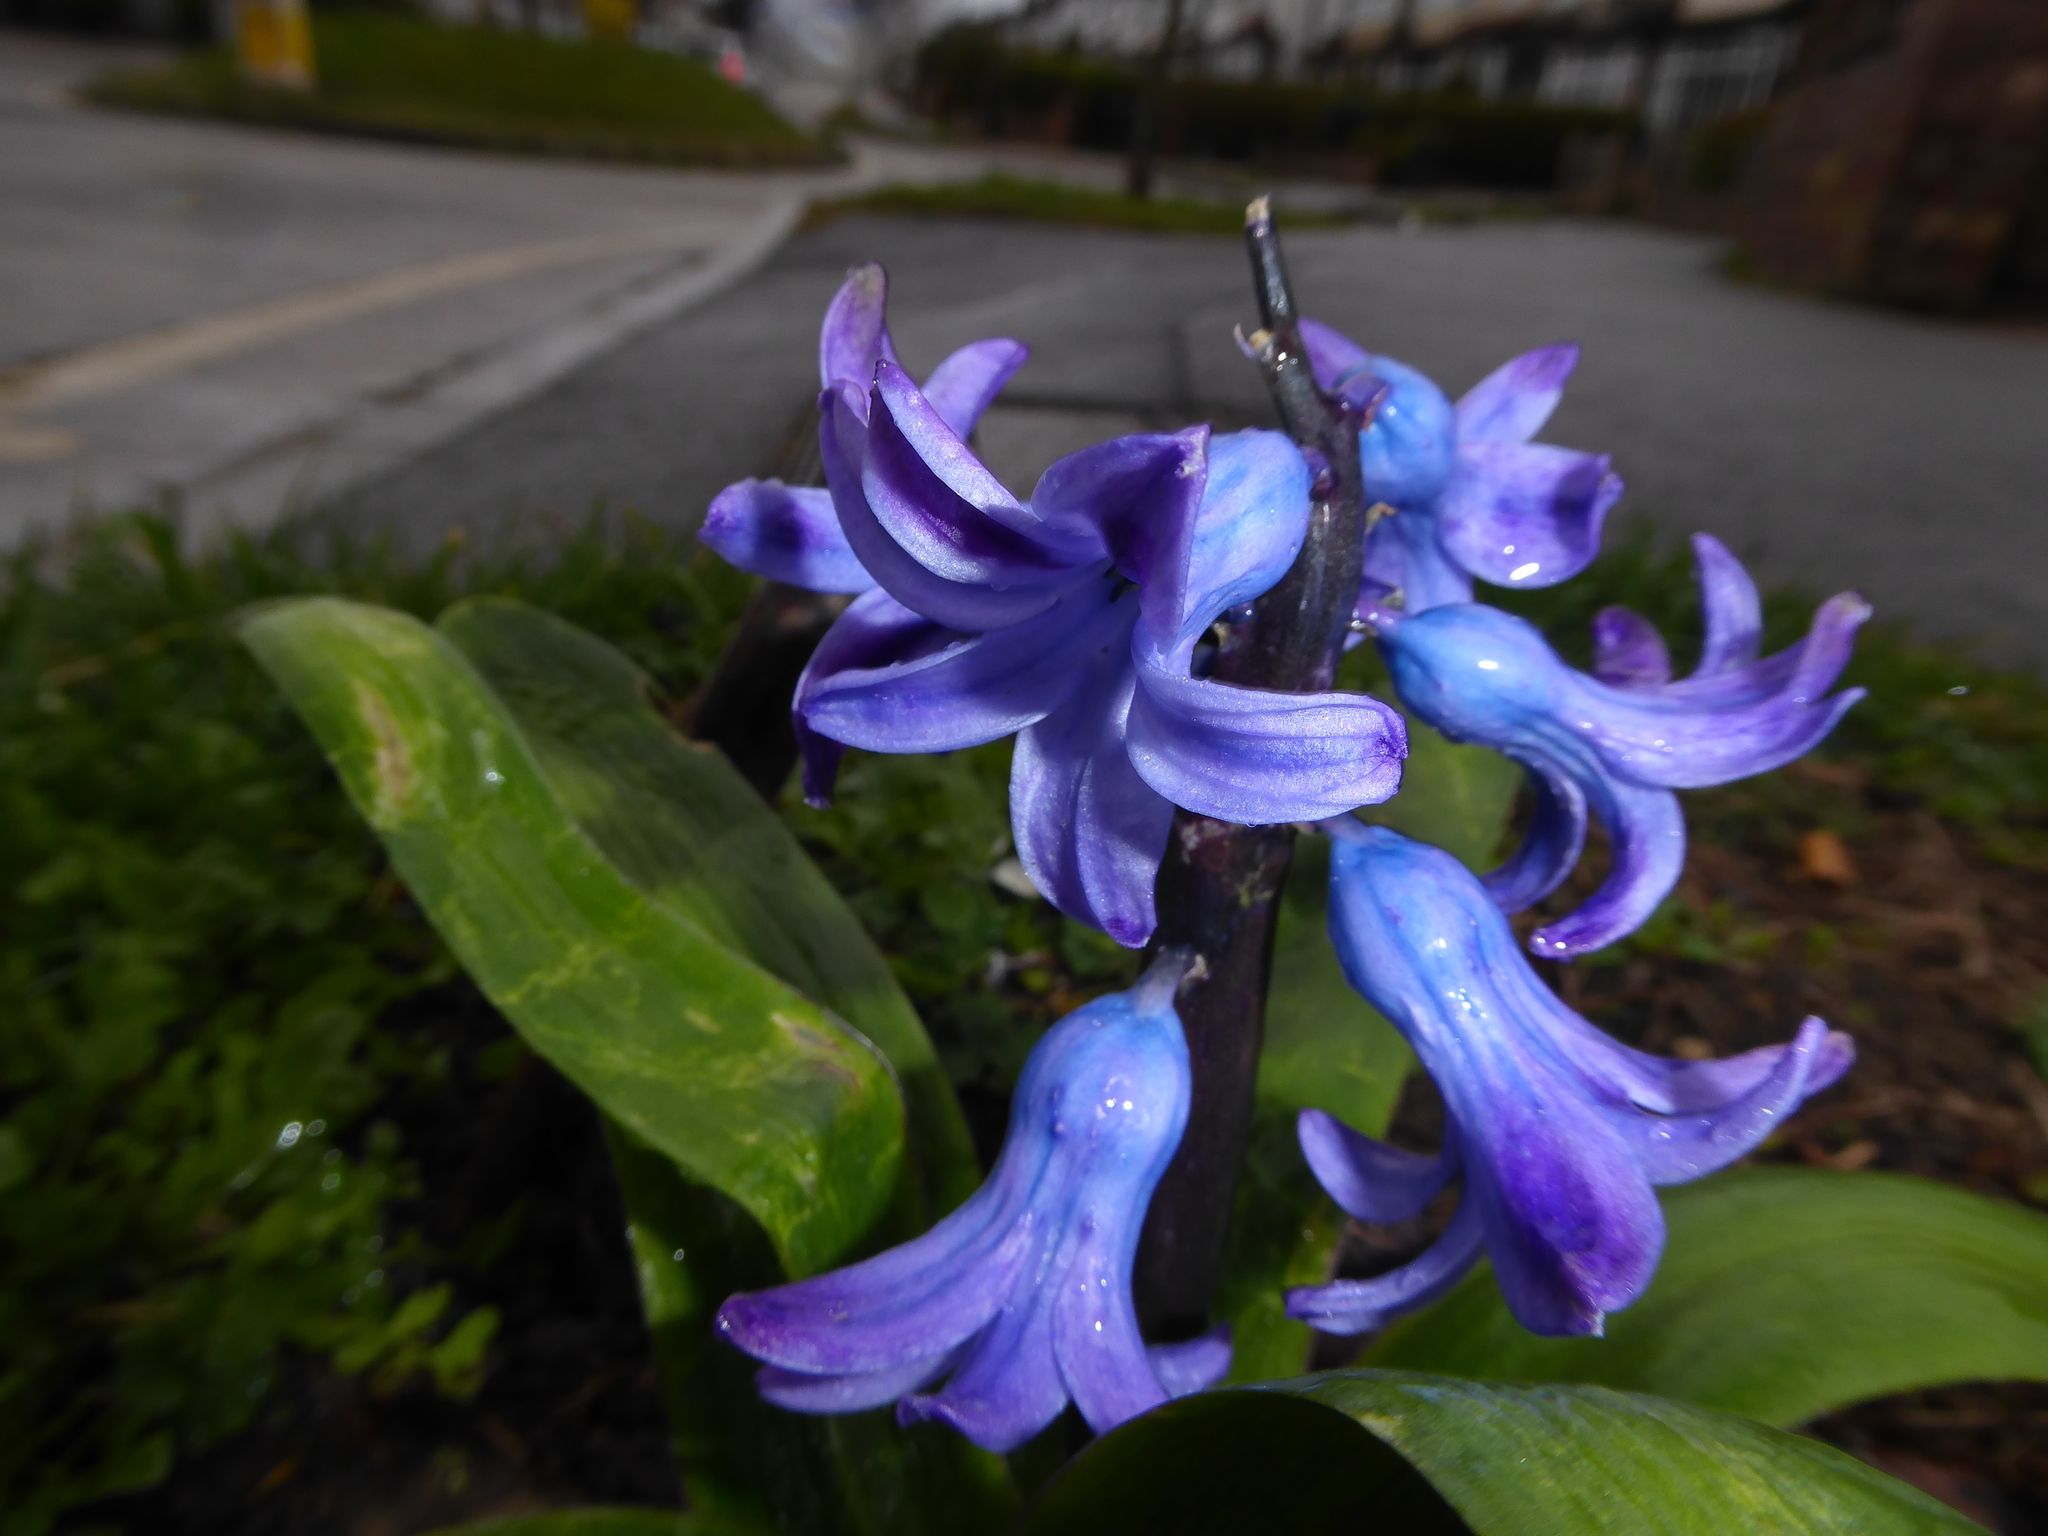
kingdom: Plantae
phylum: Tracheophyta
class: Liliopsida
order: Asparagales
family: Asparagaceae
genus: Hyacinthus
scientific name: Hyacinthus orientalis
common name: Hyacinth
